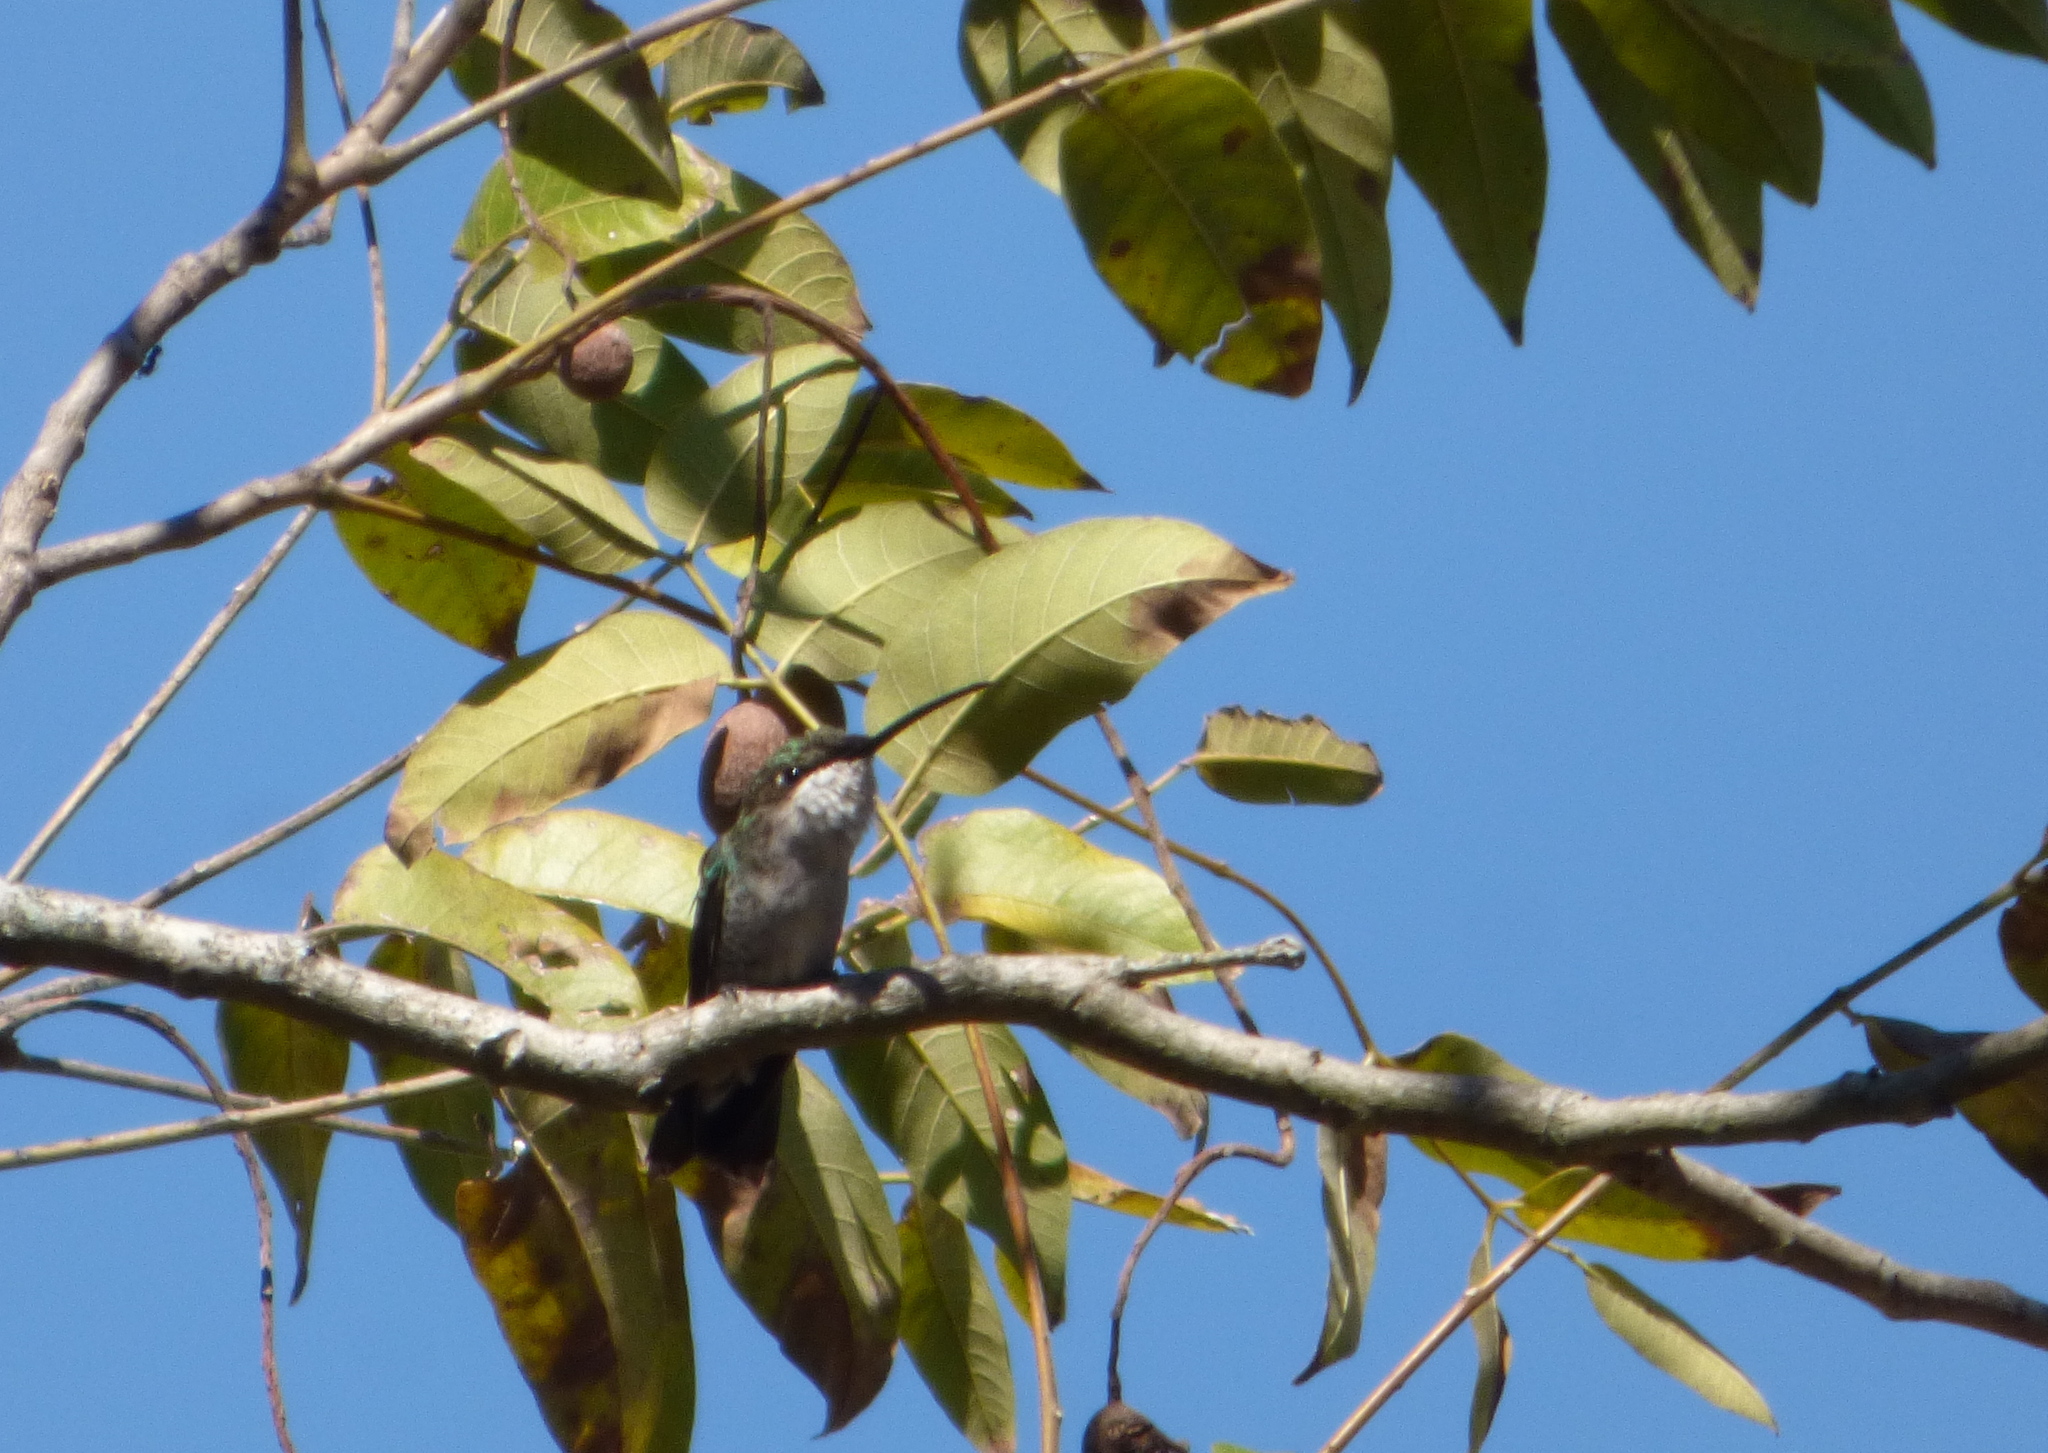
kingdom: Animalia
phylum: Chordata
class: Aves
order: Apodiformes
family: Trochilidae
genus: Heliomaster
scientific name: Heliomaster furcifer
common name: Blue-tufted starthroat
